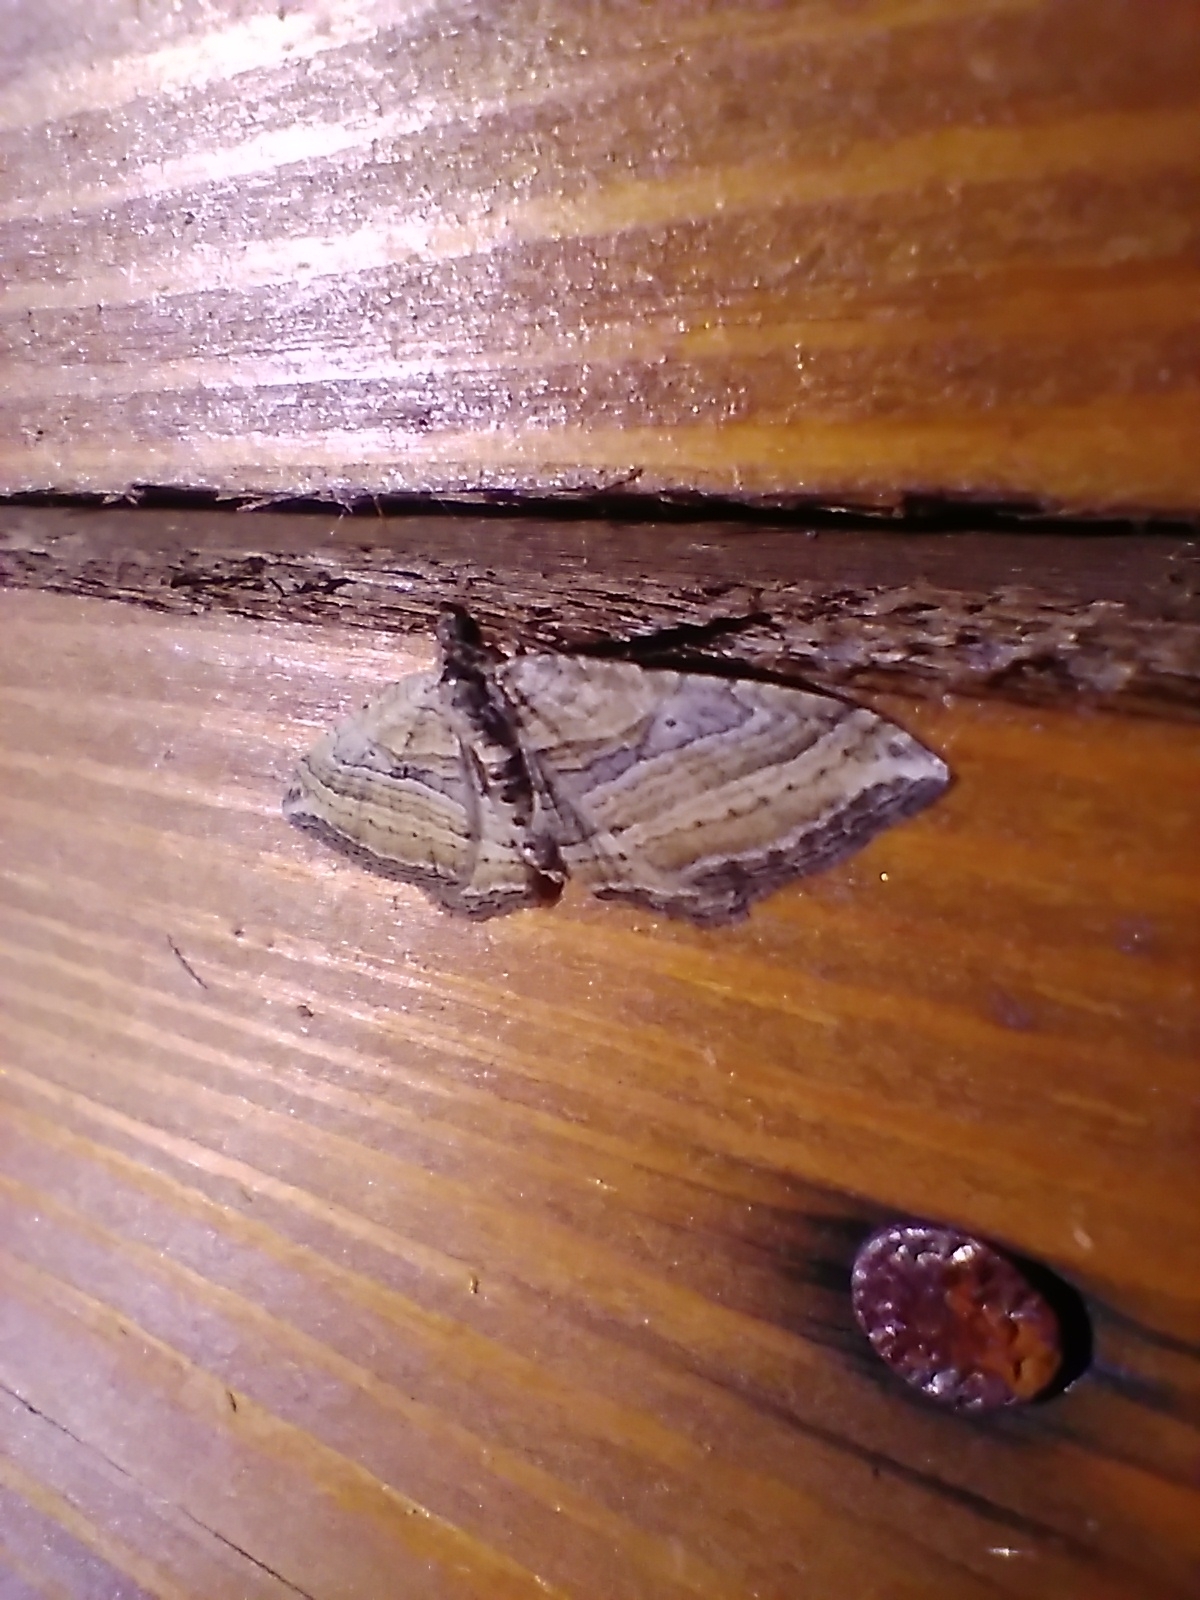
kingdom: Animalia
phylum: Arthropoda
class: Insecta
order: Lepidoptera
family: Geometridae
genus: Costaconvexa
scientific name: Costaconvexa polygrammata
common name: Many-lined
